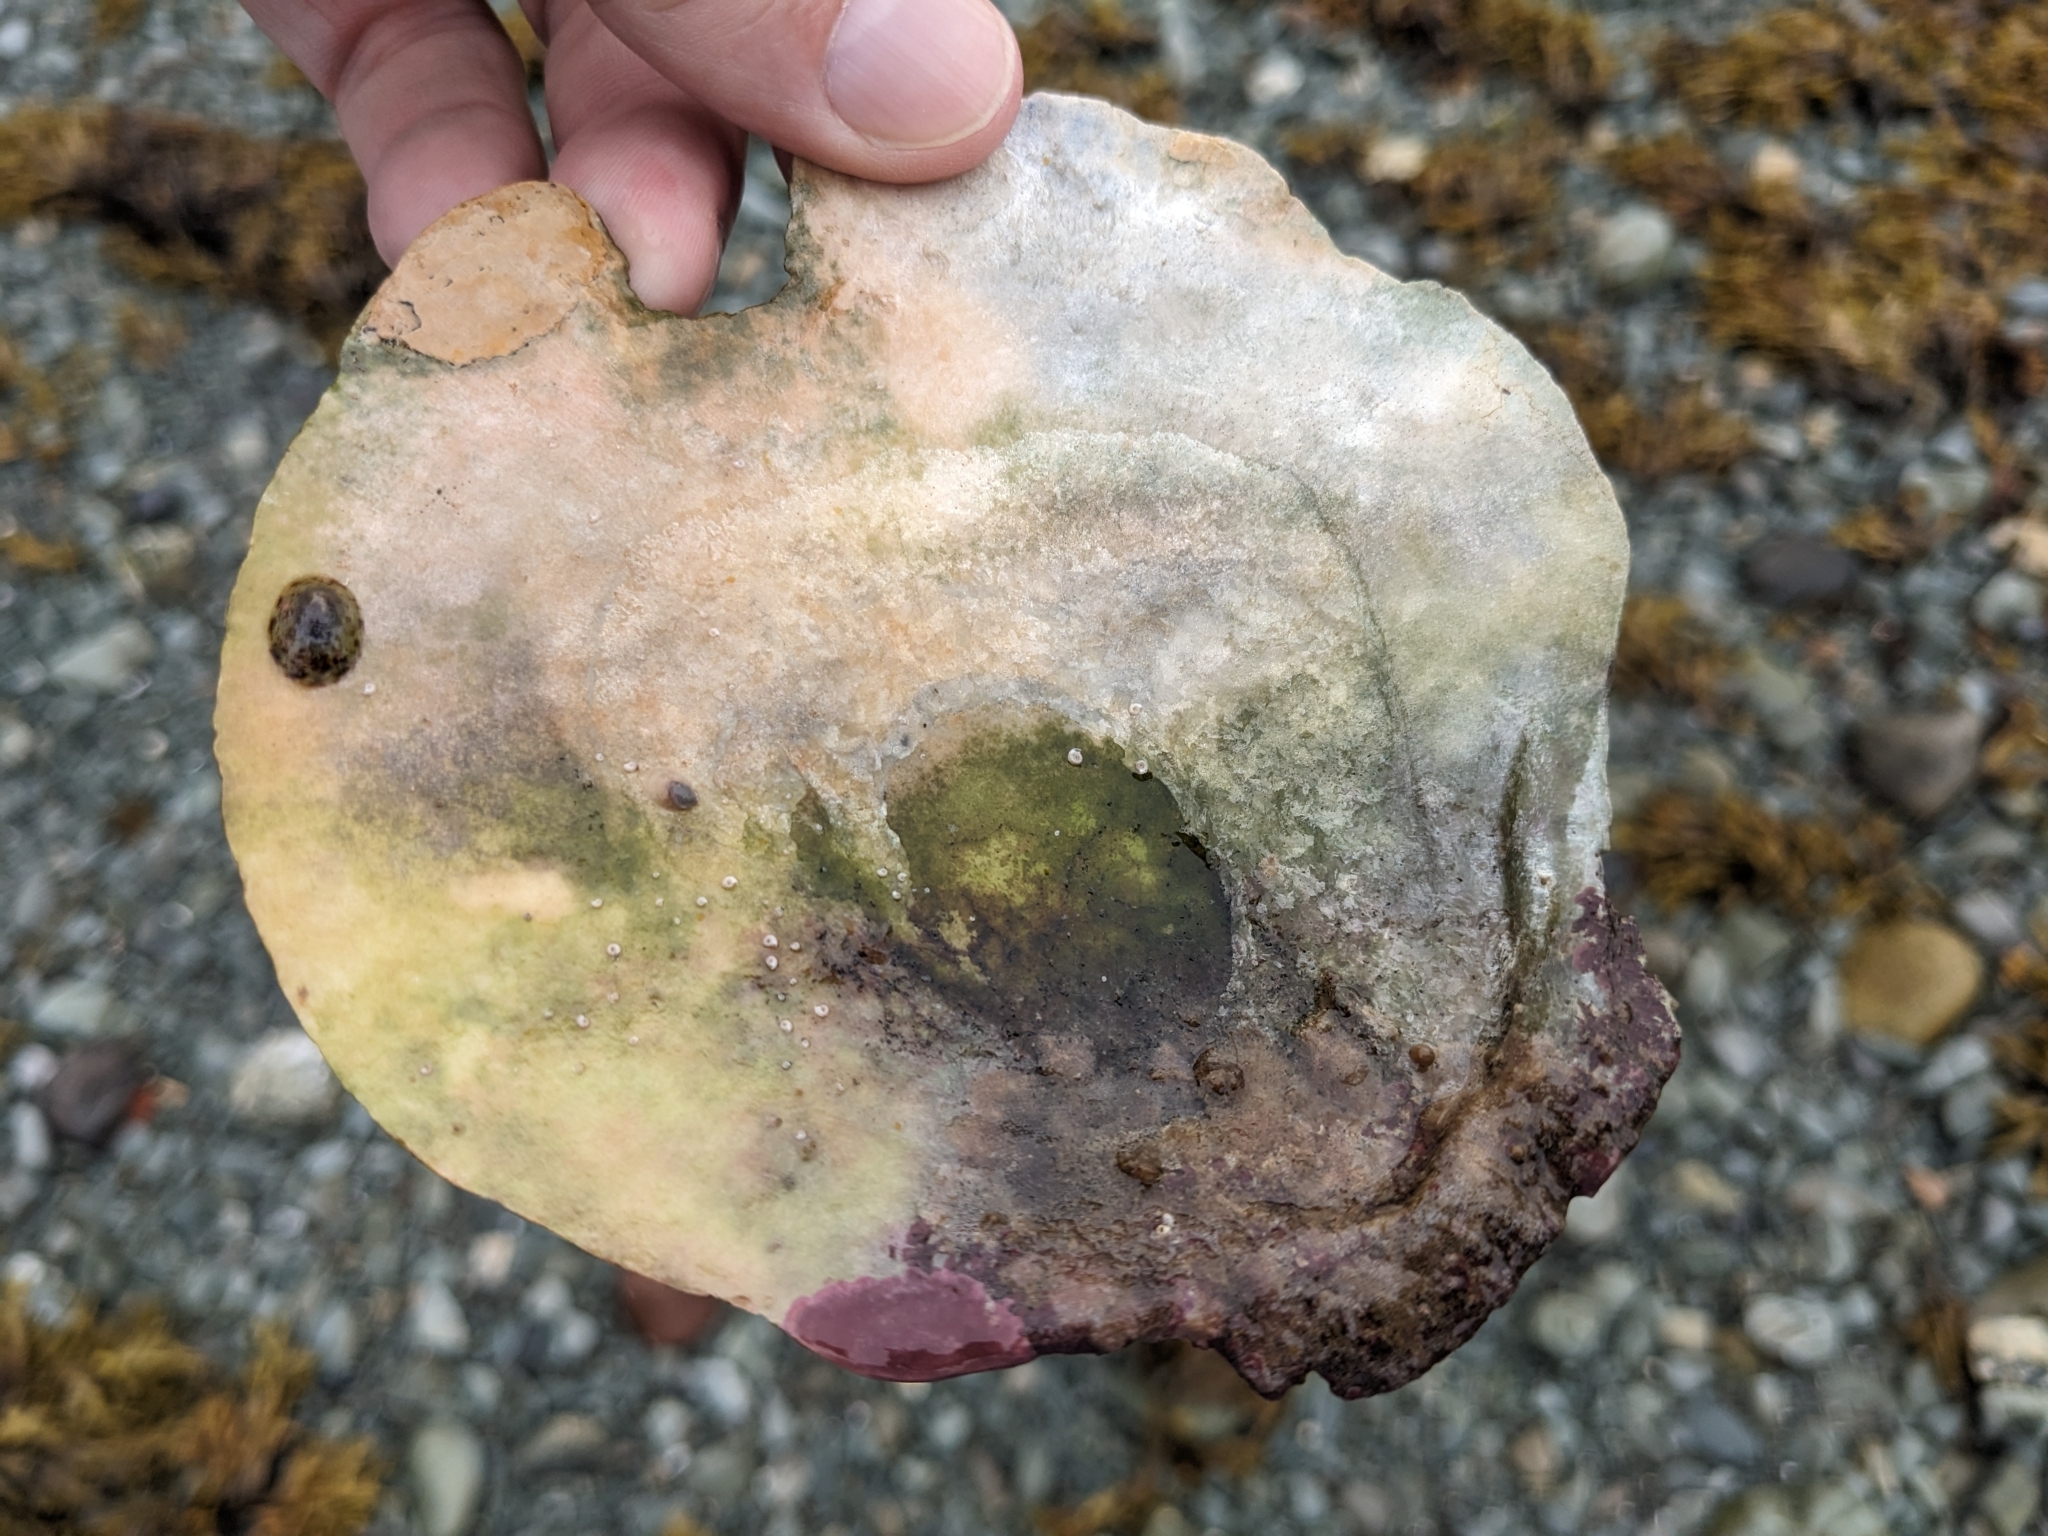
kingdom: Animalia
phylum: Mollusca
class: Gastropoda
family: Lottiidae
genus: Testudinalia
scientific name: Testudinalia testudinalis
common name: Common tortoiseshell limpet
